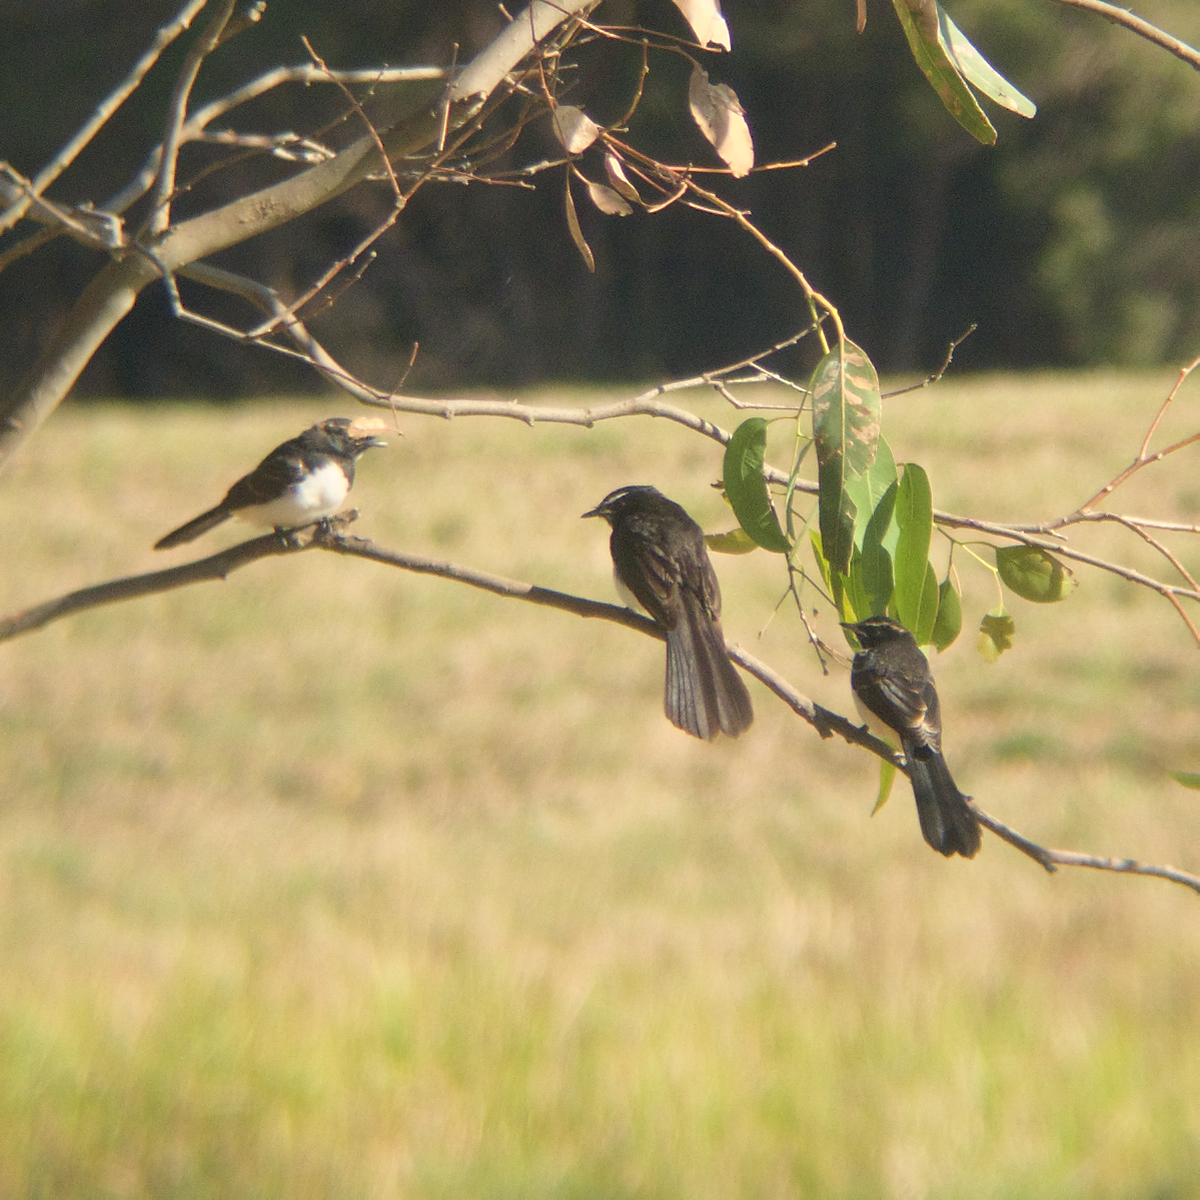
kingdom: Animalia
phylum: Chordata
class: Aves
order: Passeriformes
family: Rhipiduridae
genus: Rhipidura
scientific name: Rhipidura leucophrys
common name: Willie wagtail
